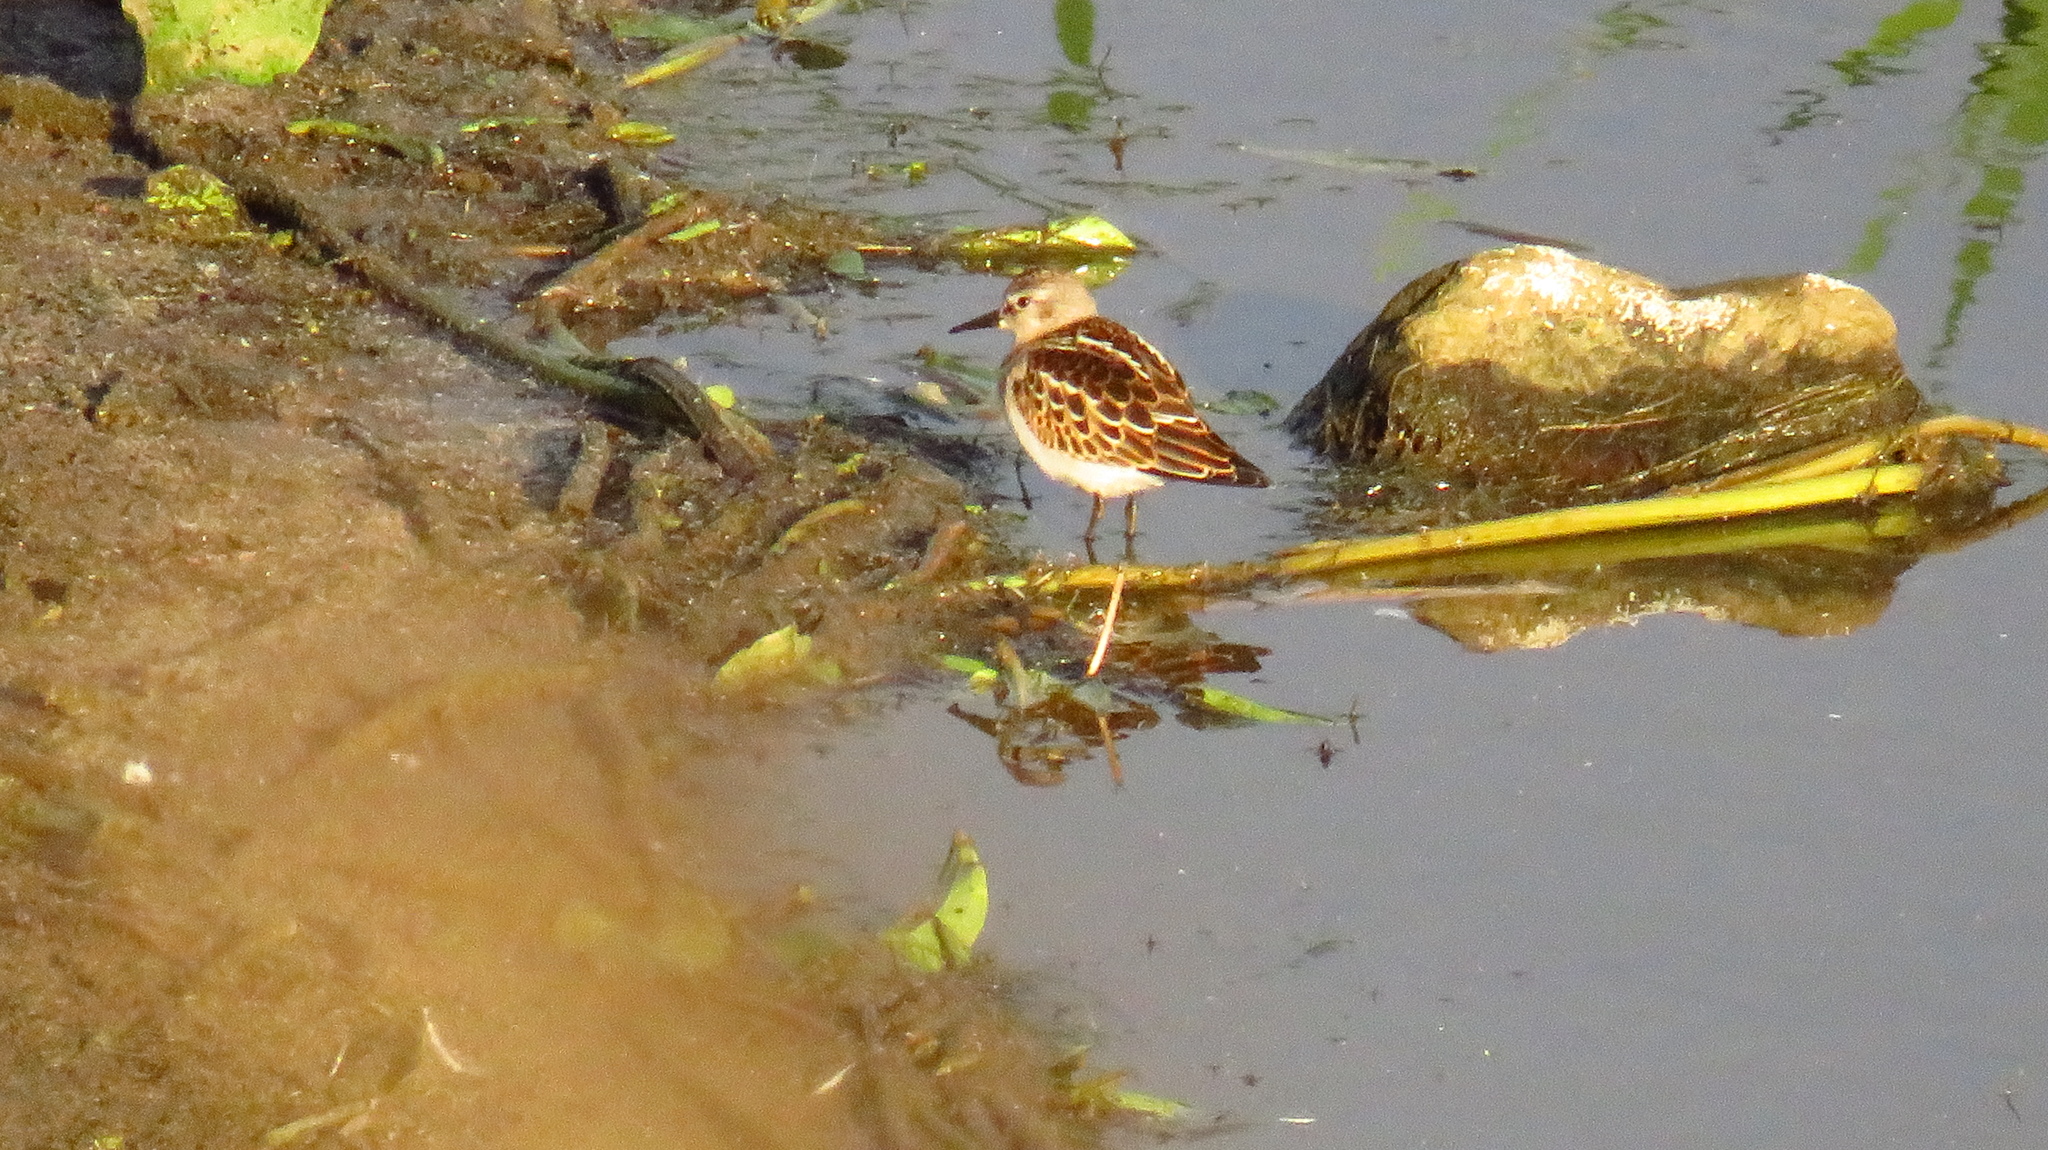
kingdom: Animalia
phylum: Chordata
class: Aves
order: Charadriiformes
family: Scolopacidae
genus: Calidris
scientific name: Calidris minuta
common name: Little stint
